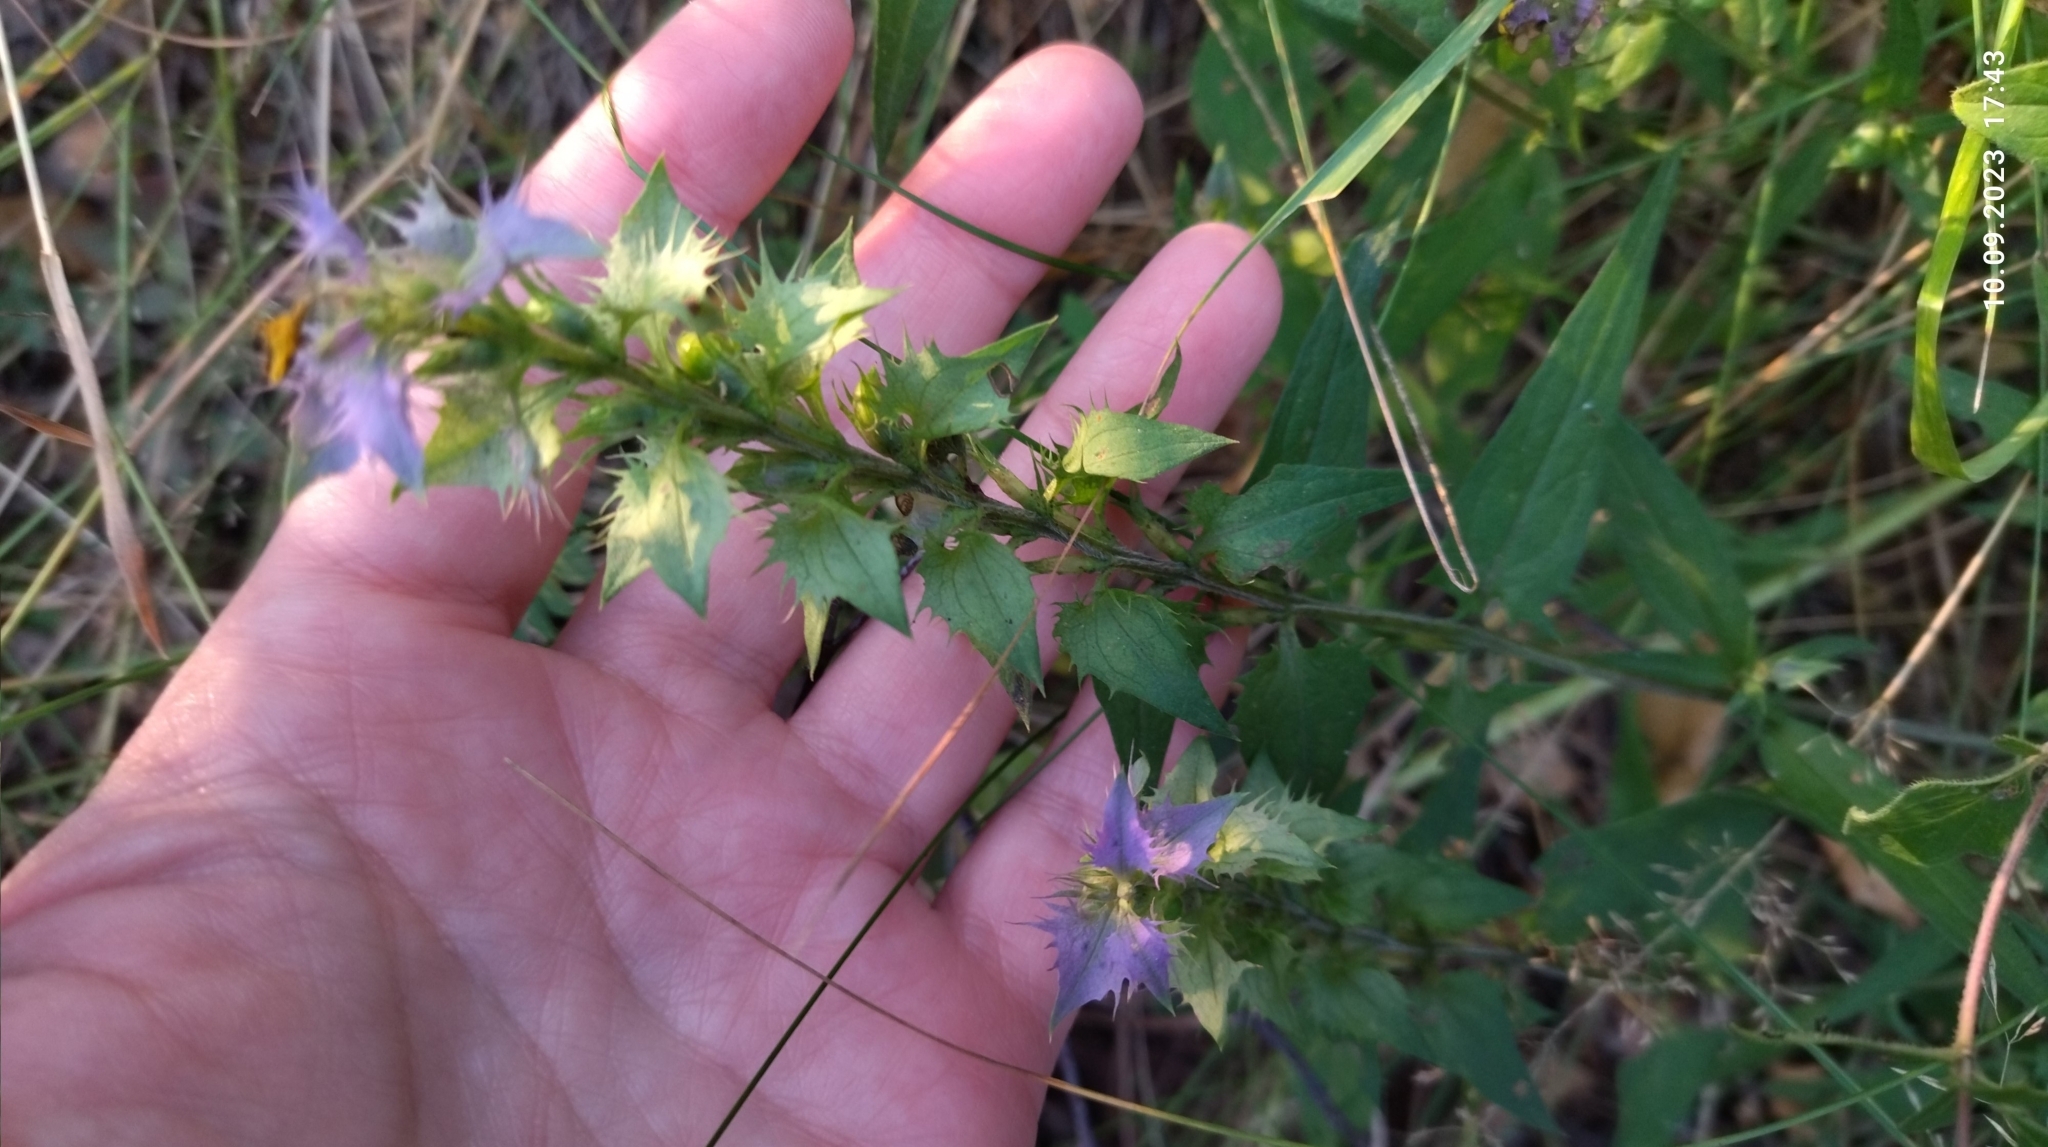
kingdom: Plantae
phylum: Tracheophyta
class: Magnoliopsida
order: Lamiales
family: Orobanchaceae
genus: Melampyrum
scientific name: Melampyrum nemorosum
